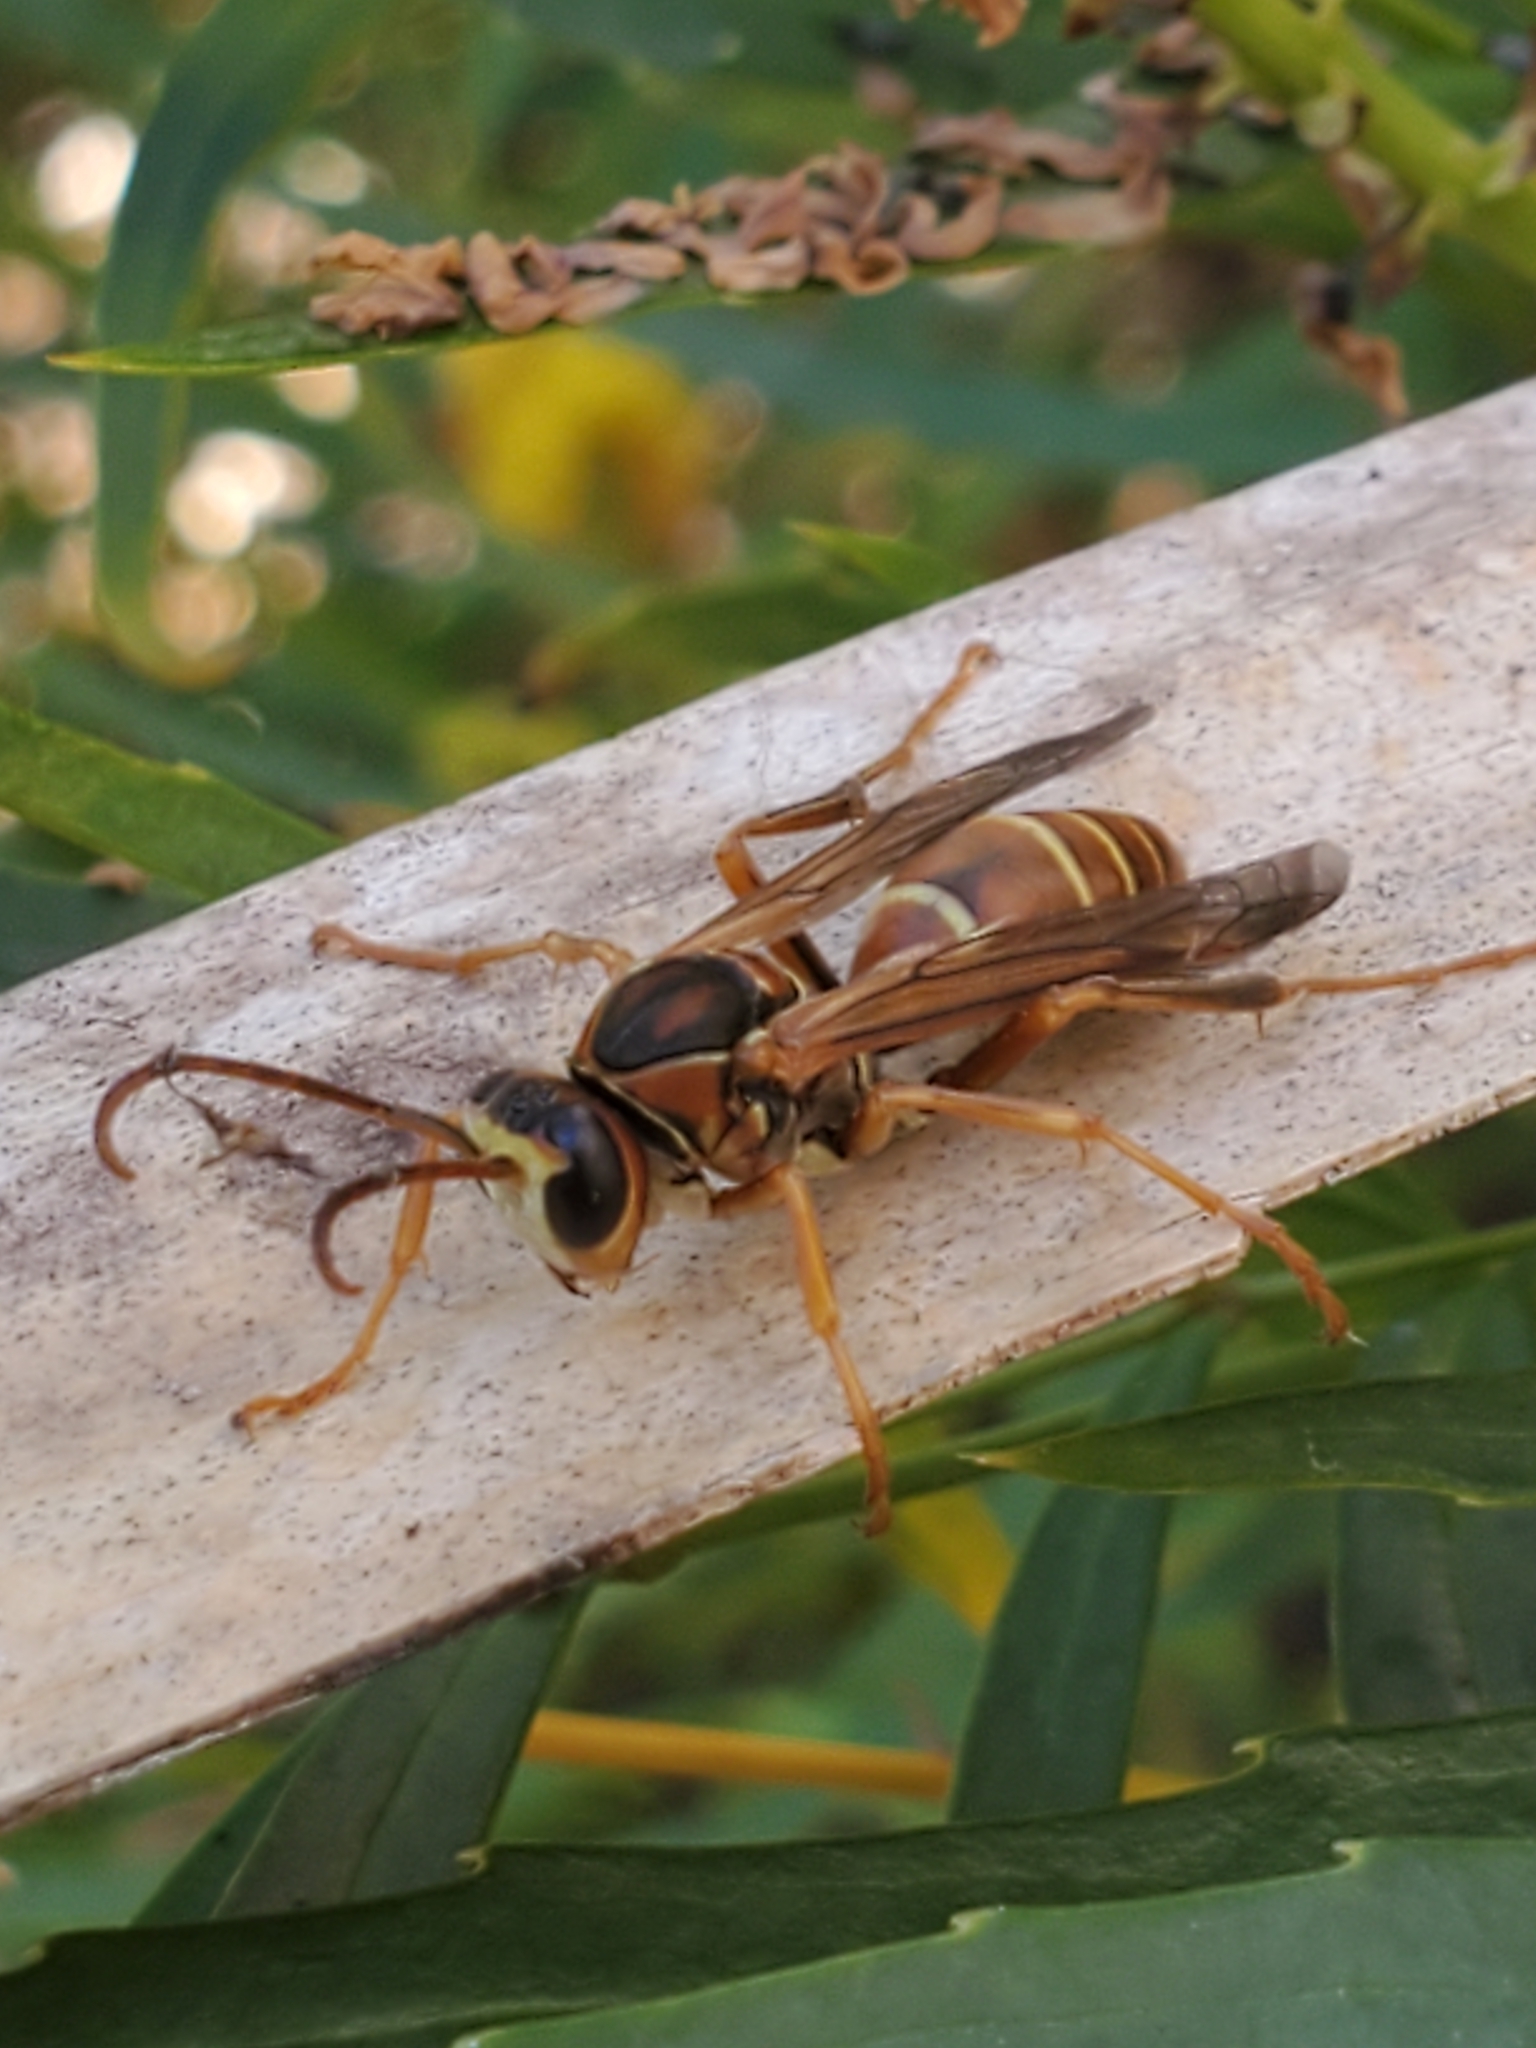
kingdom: Animalia
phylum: Arthropoda
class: Insecta
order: Hymenoptera
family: Eumenidae
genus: Polistes
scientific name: Polistes dorsalis
